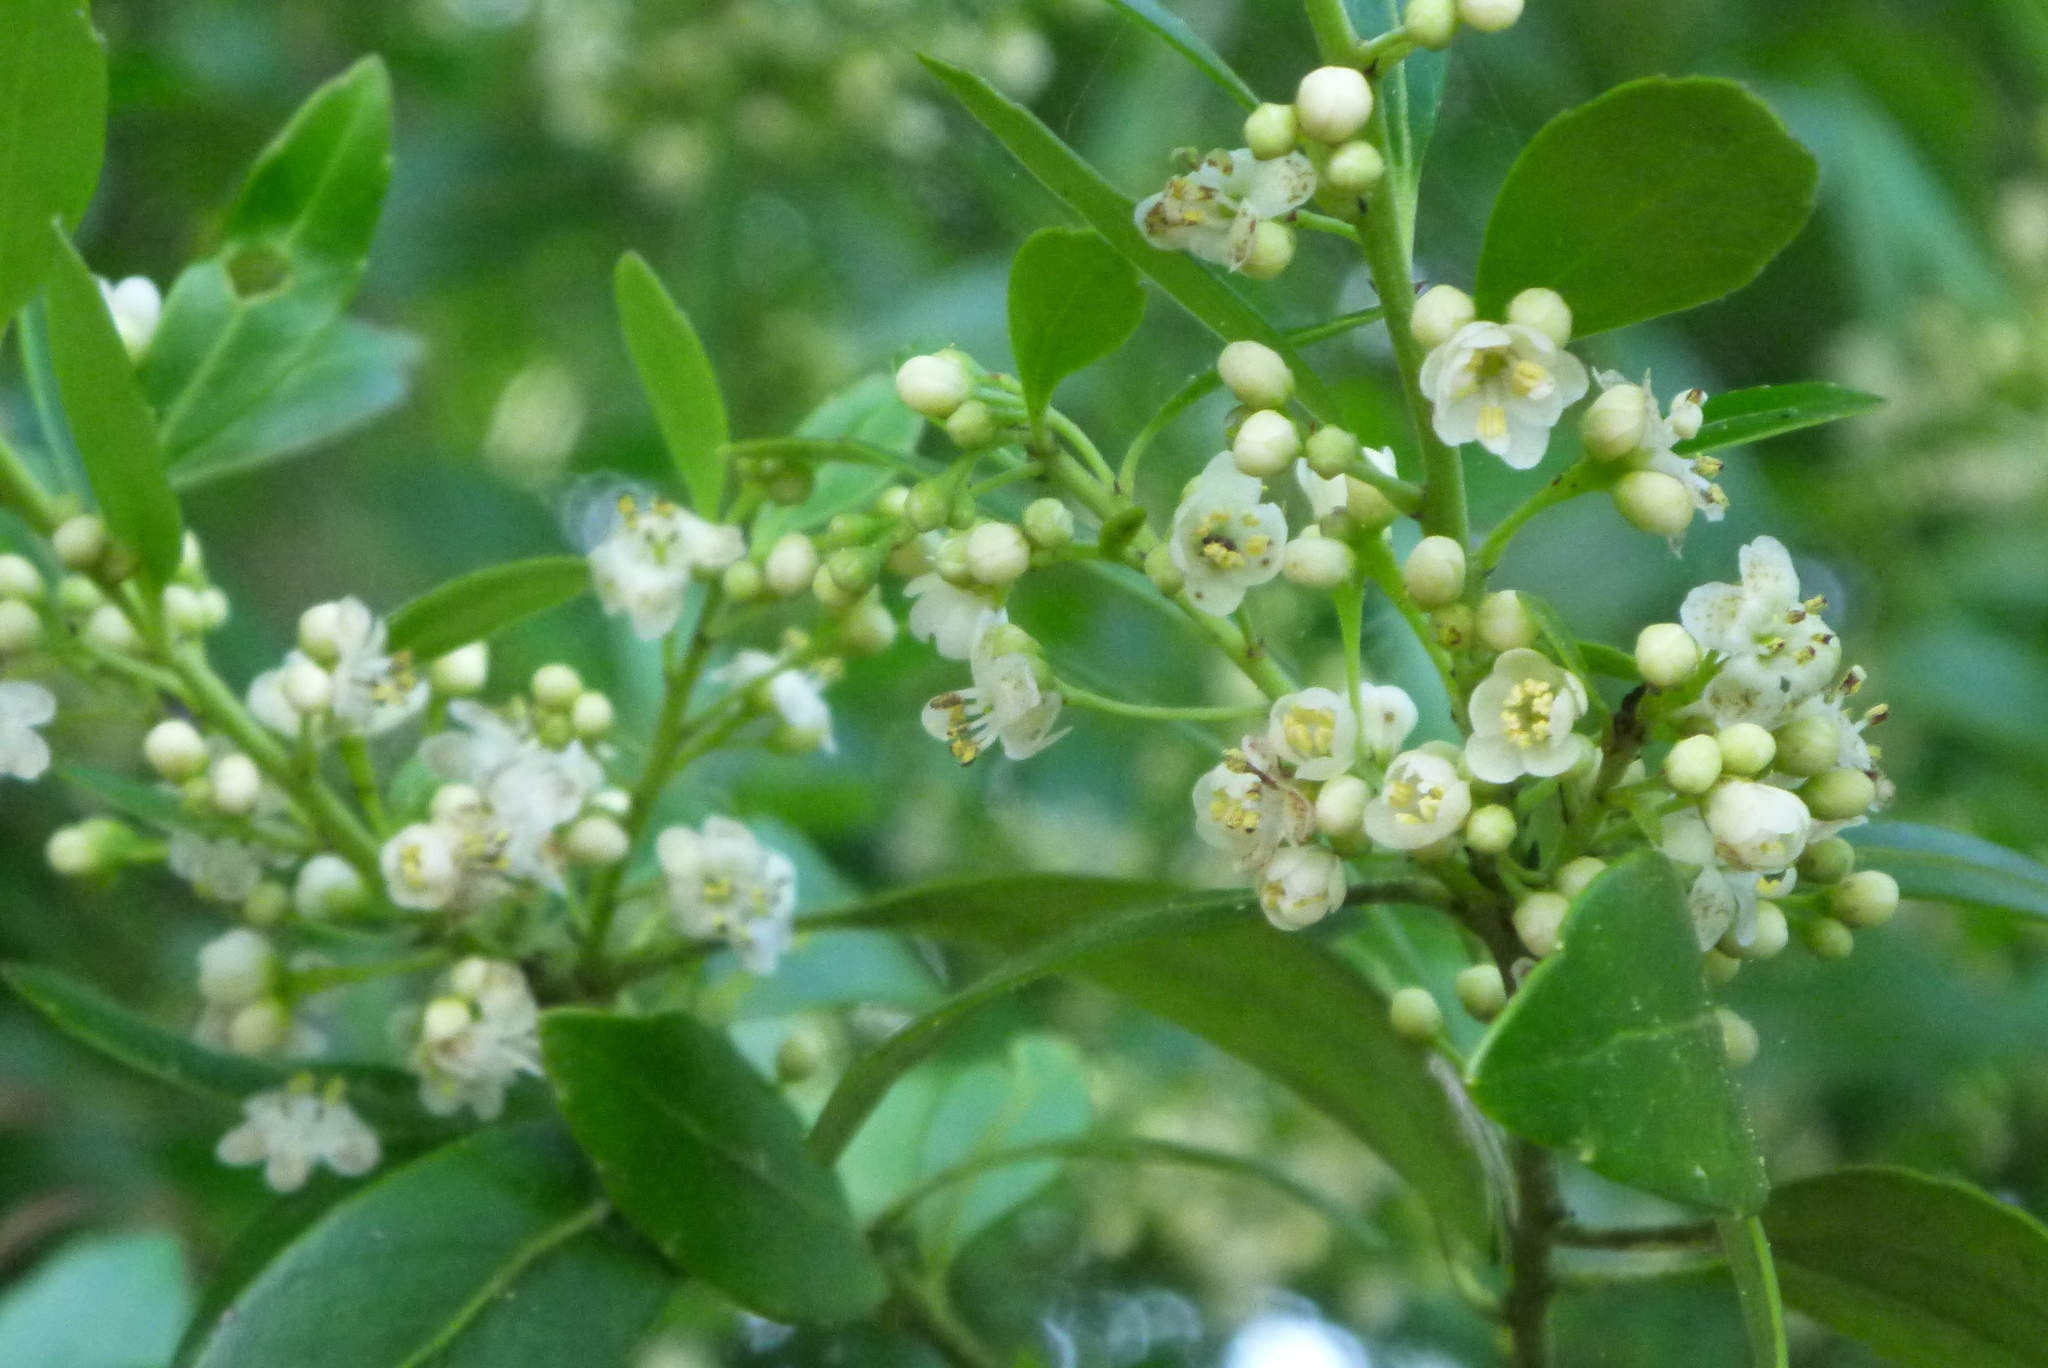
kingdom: Plantae
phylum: Tracheophyta
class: Magnoliopsida
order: Aquifoliales
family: Aquifoliaceae
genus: Ilex
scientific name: Ilex glabra
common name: Bitter gallberry
